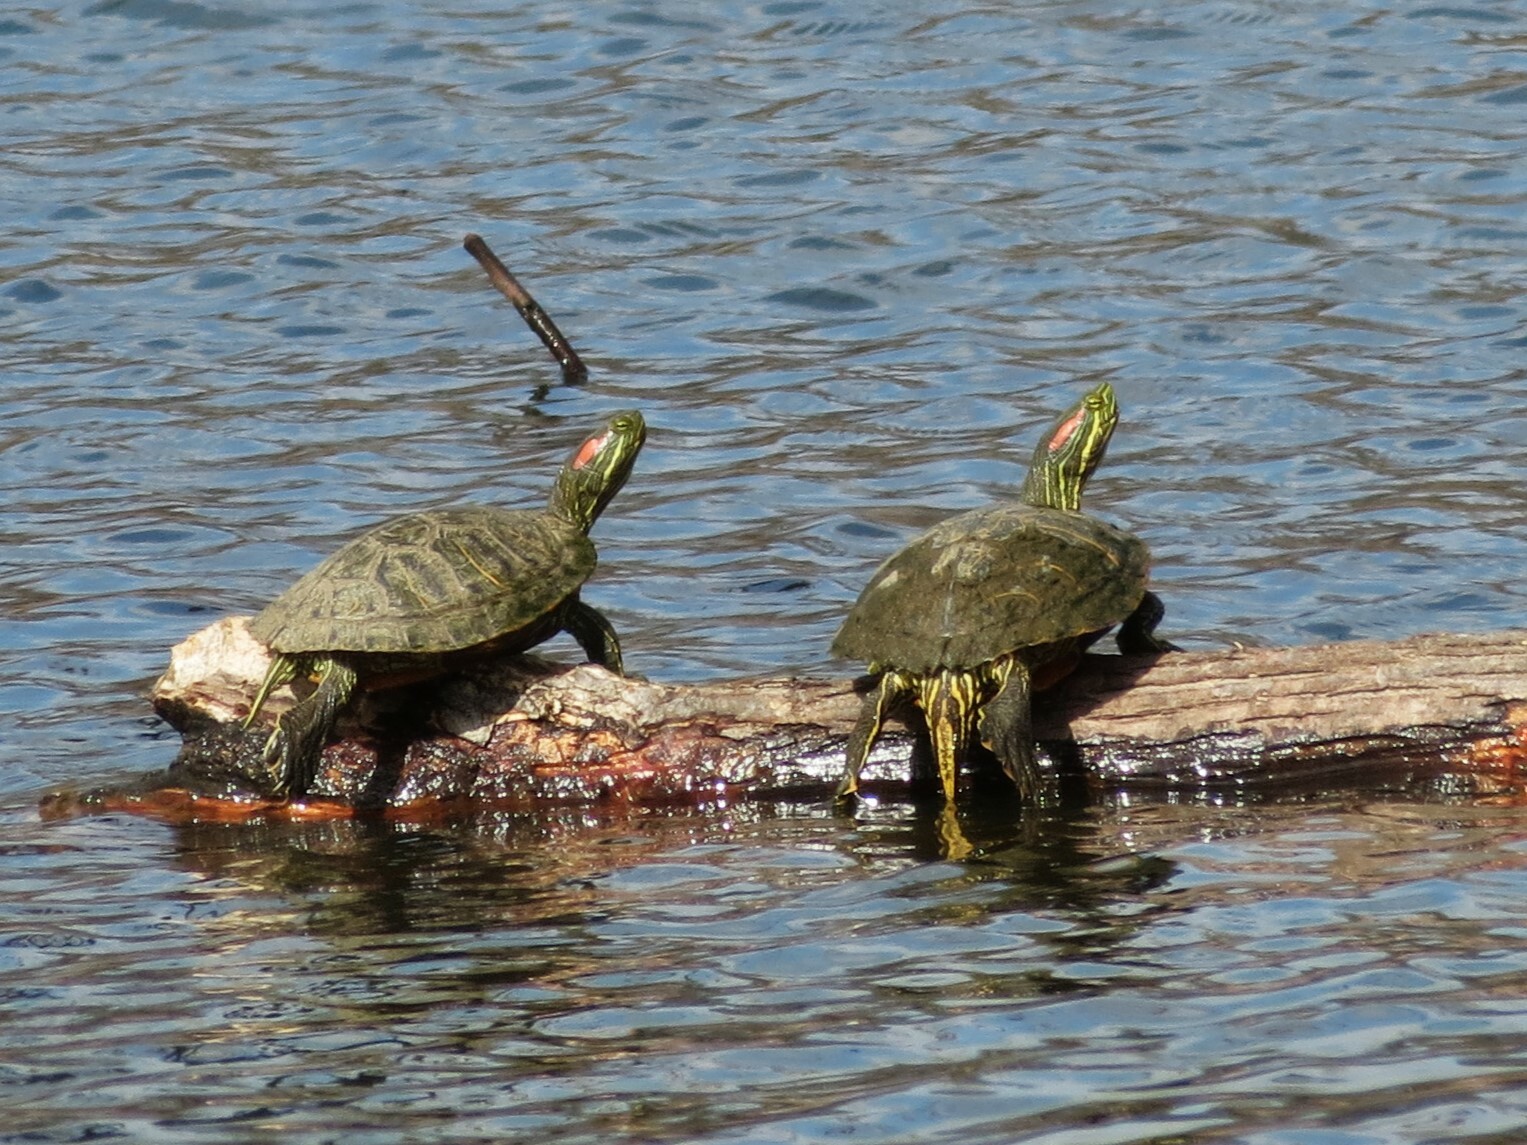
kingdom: Animalia
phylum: Chordata
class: Testudines
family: Emydidae
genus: Trachemys
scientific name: Trachemys scripta
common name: Slider
